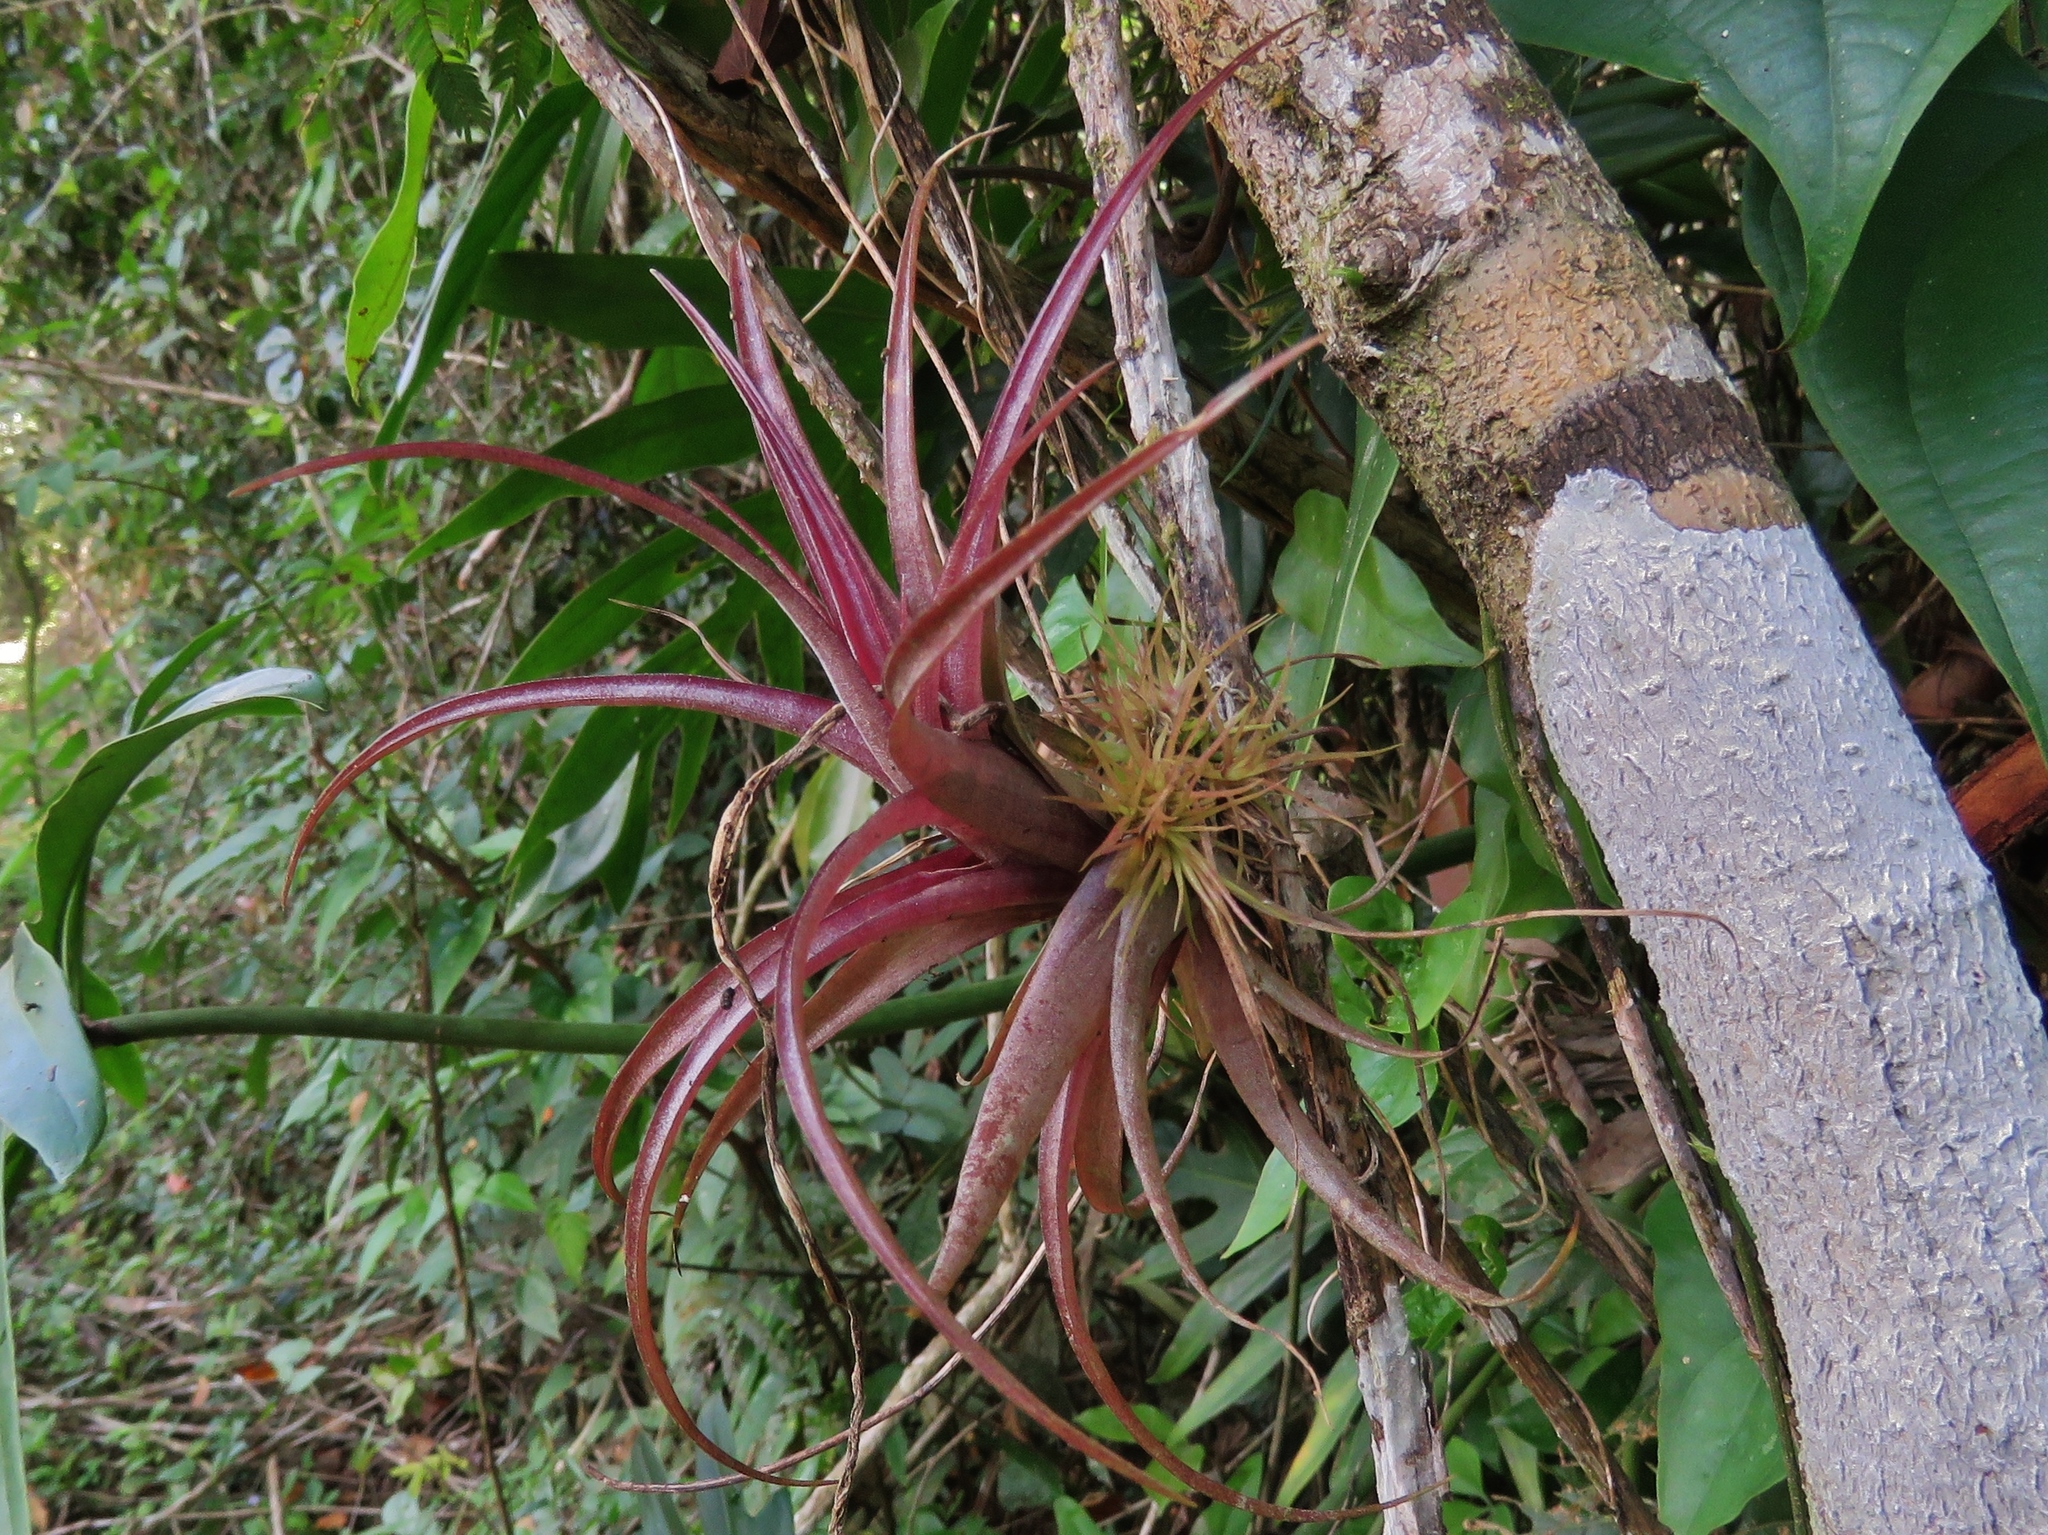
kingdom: Plantae
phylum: Tracheophyta
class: Liliopsida
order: Poales
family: Bromeliaceae
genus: Tillandsia
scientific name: Tillandsia brachycaulos
